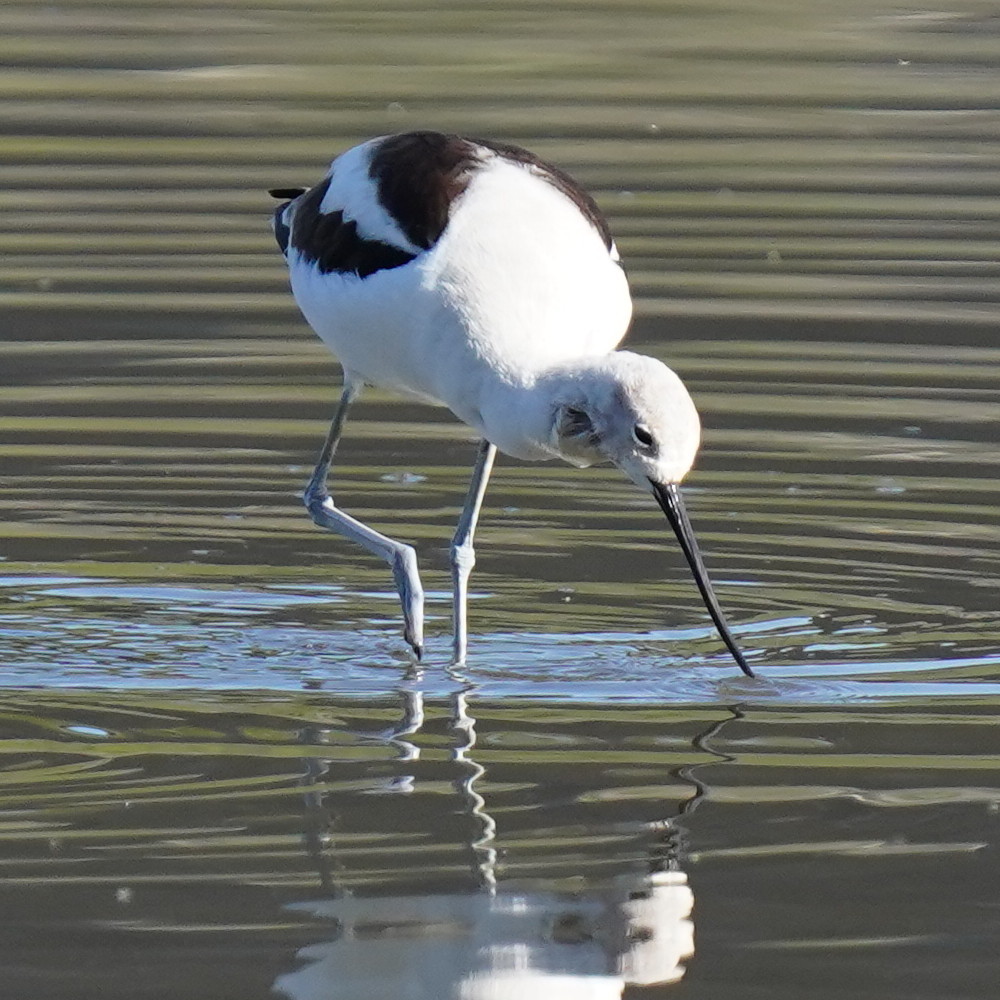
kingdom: Animalia
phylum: Chordata
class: Aves
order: Charadriiformes
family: Recurvirostridae
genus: Recurvirostra
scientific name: Recurvirostra americana
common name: American avocet
